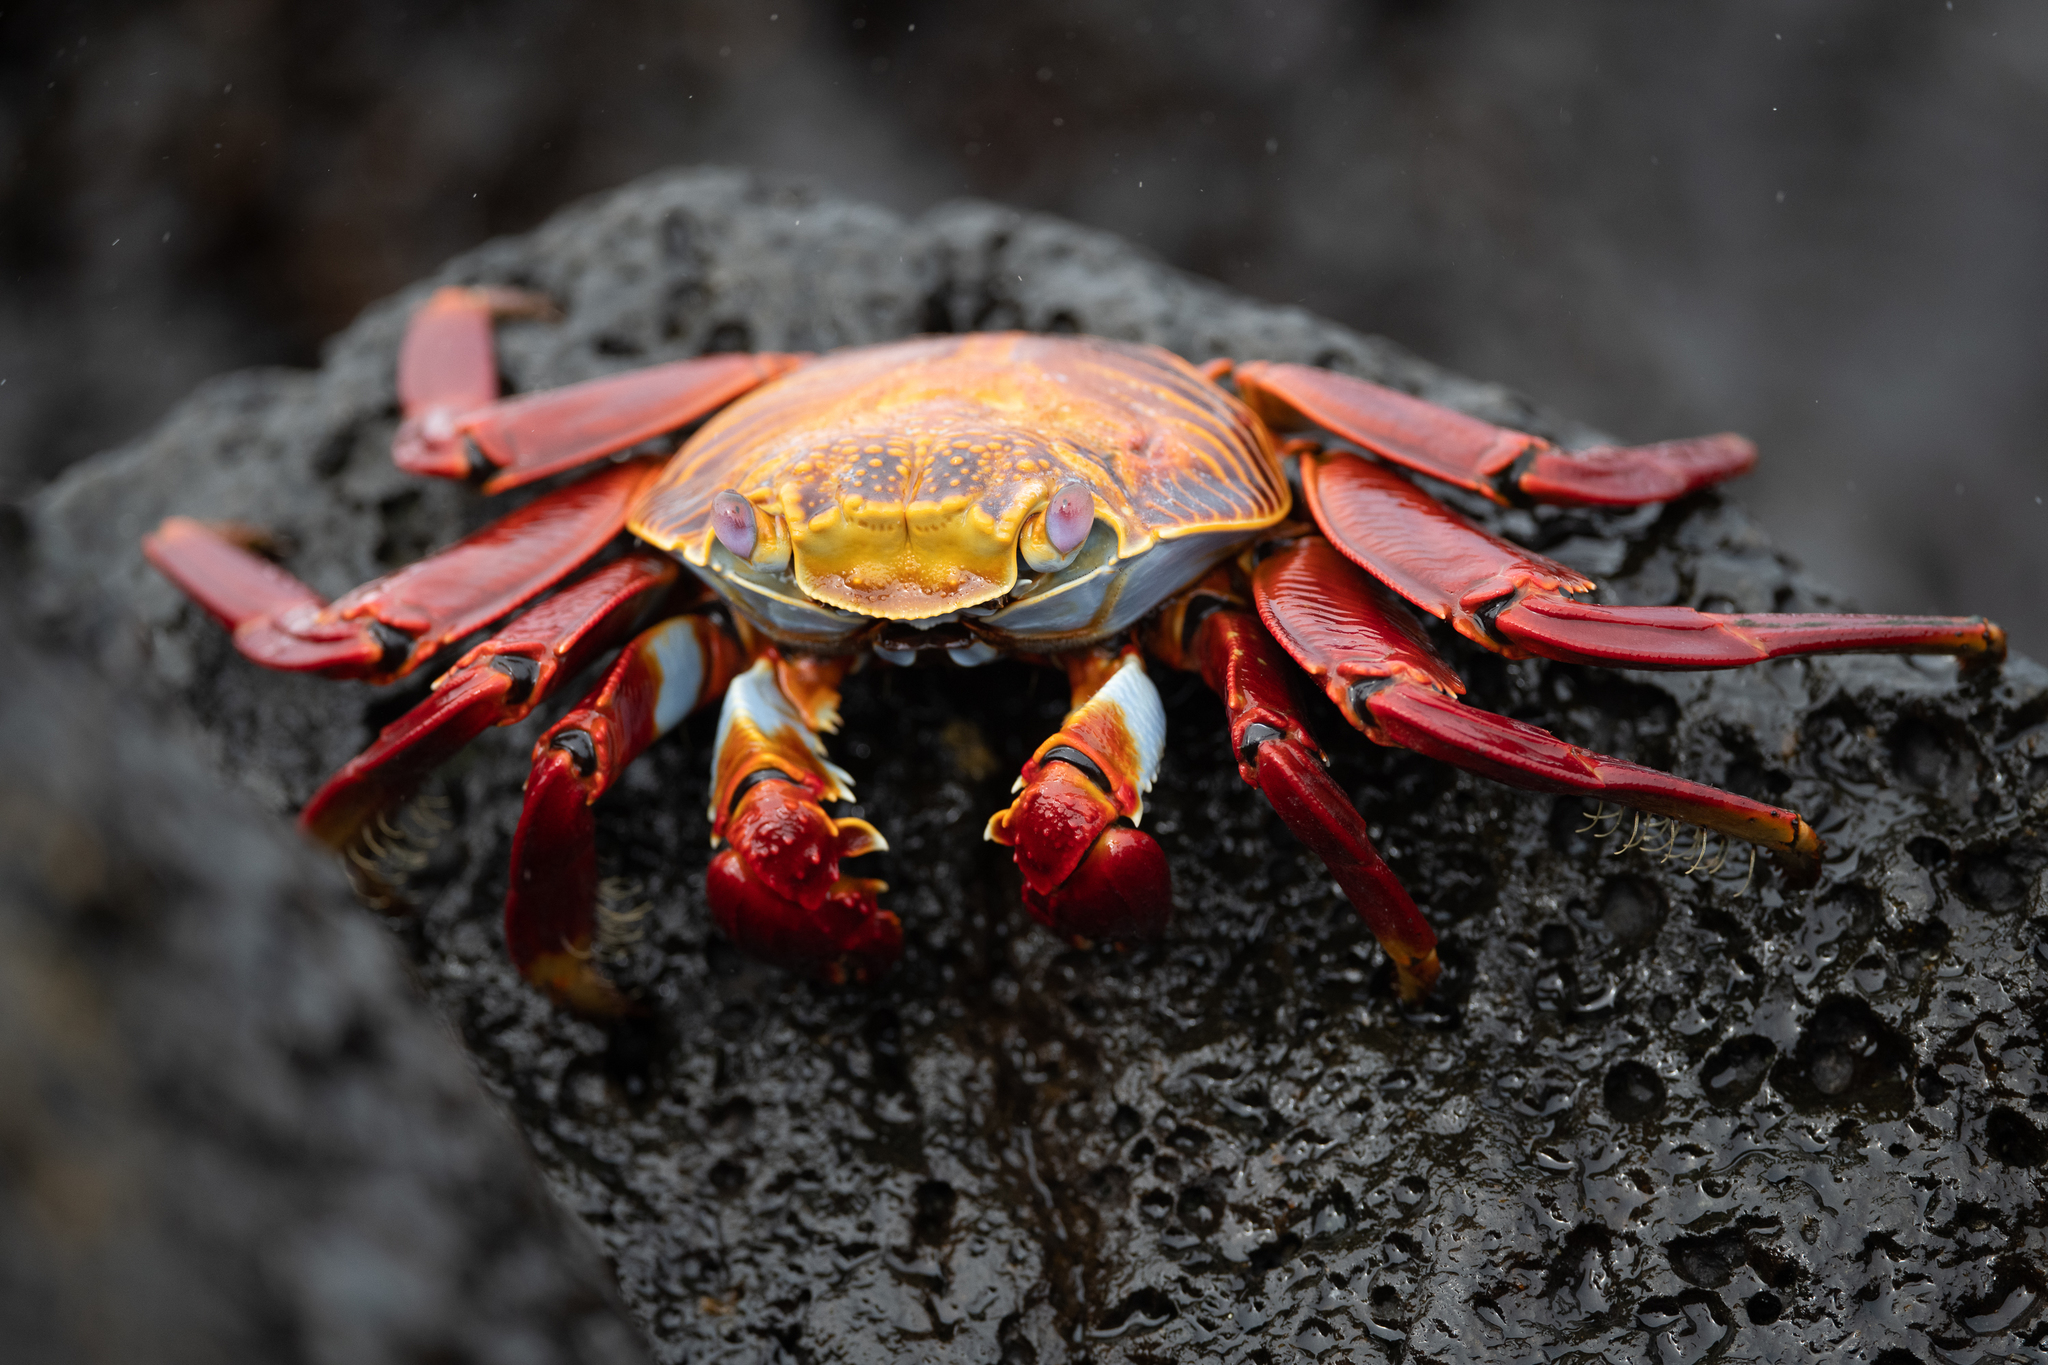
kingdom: Animalia
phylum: Arthropoda
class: Malacostraca
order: Decapoda
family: Grapsidae
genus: Grapsus
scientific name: Grapsus grapsus
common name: Sally lightfoot
